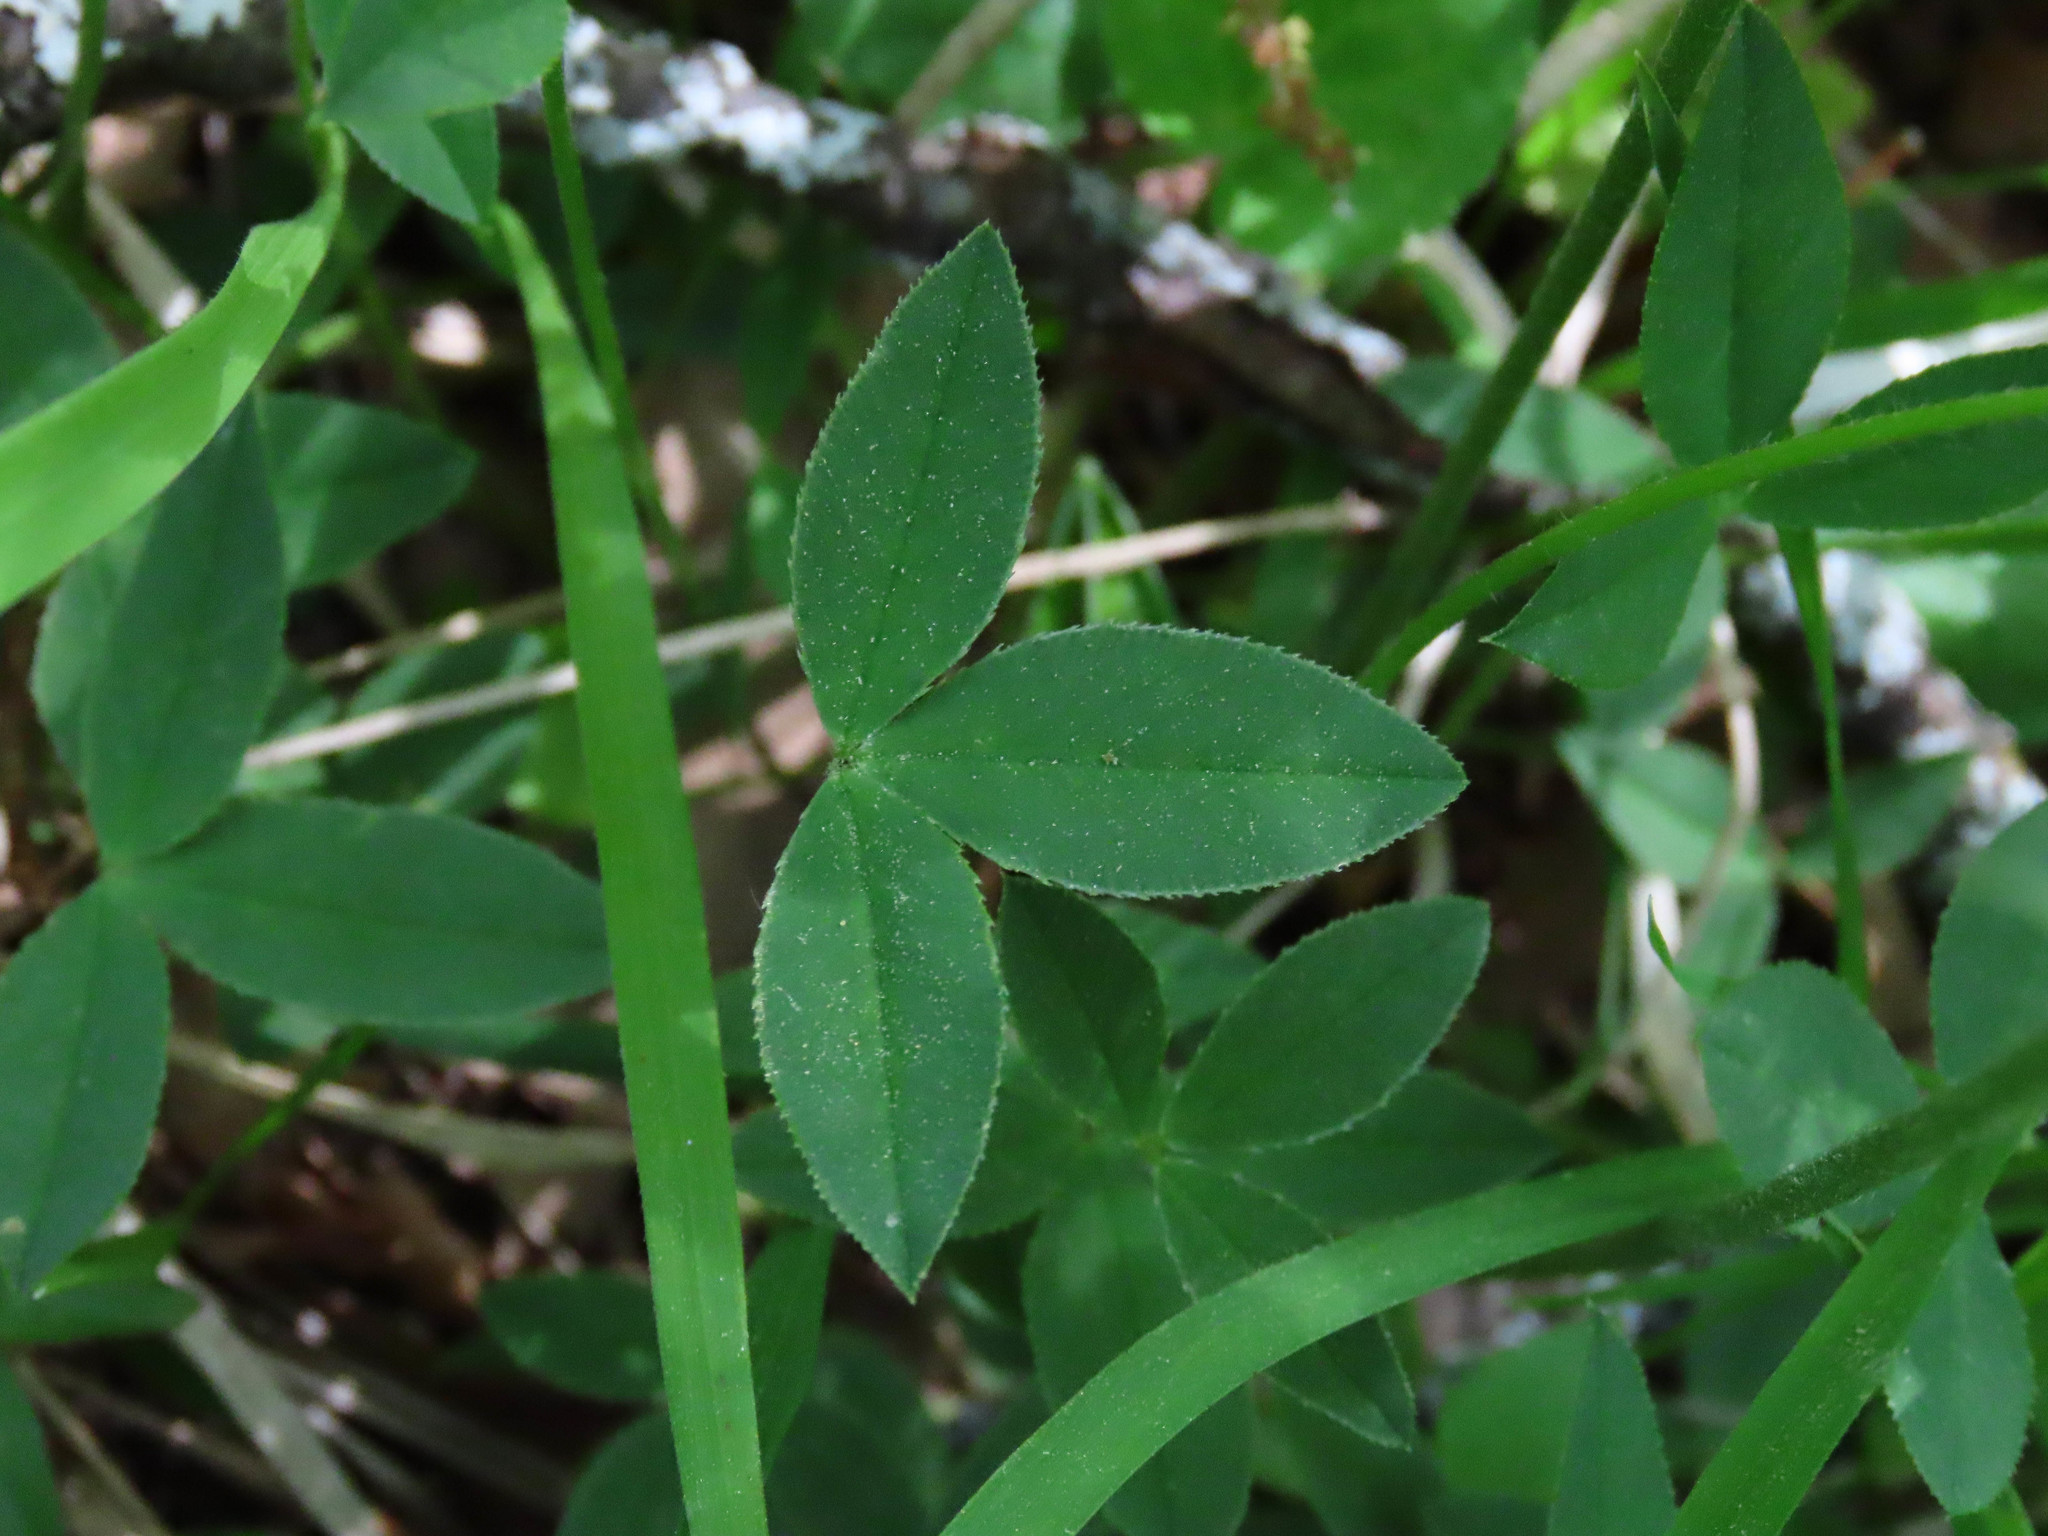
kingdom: Plantae
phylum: Tracheophyta
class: Magnoliopsida
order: Fabales
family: Fabaceae
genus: Trifolium
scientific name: Trifolium montanum
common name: Mountain clover
